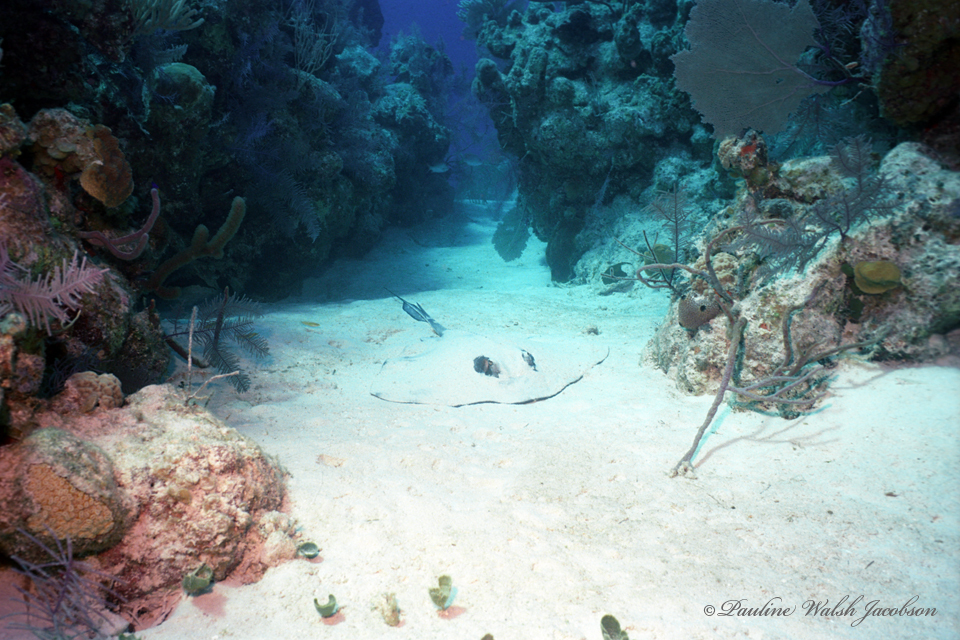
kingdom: Animalia
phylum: Chordata
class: Elasmobranchii
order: Myliobatiformes
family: Dasyatidae
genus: Hypanus
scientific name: Hypanus americanus
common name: Southern stingray
